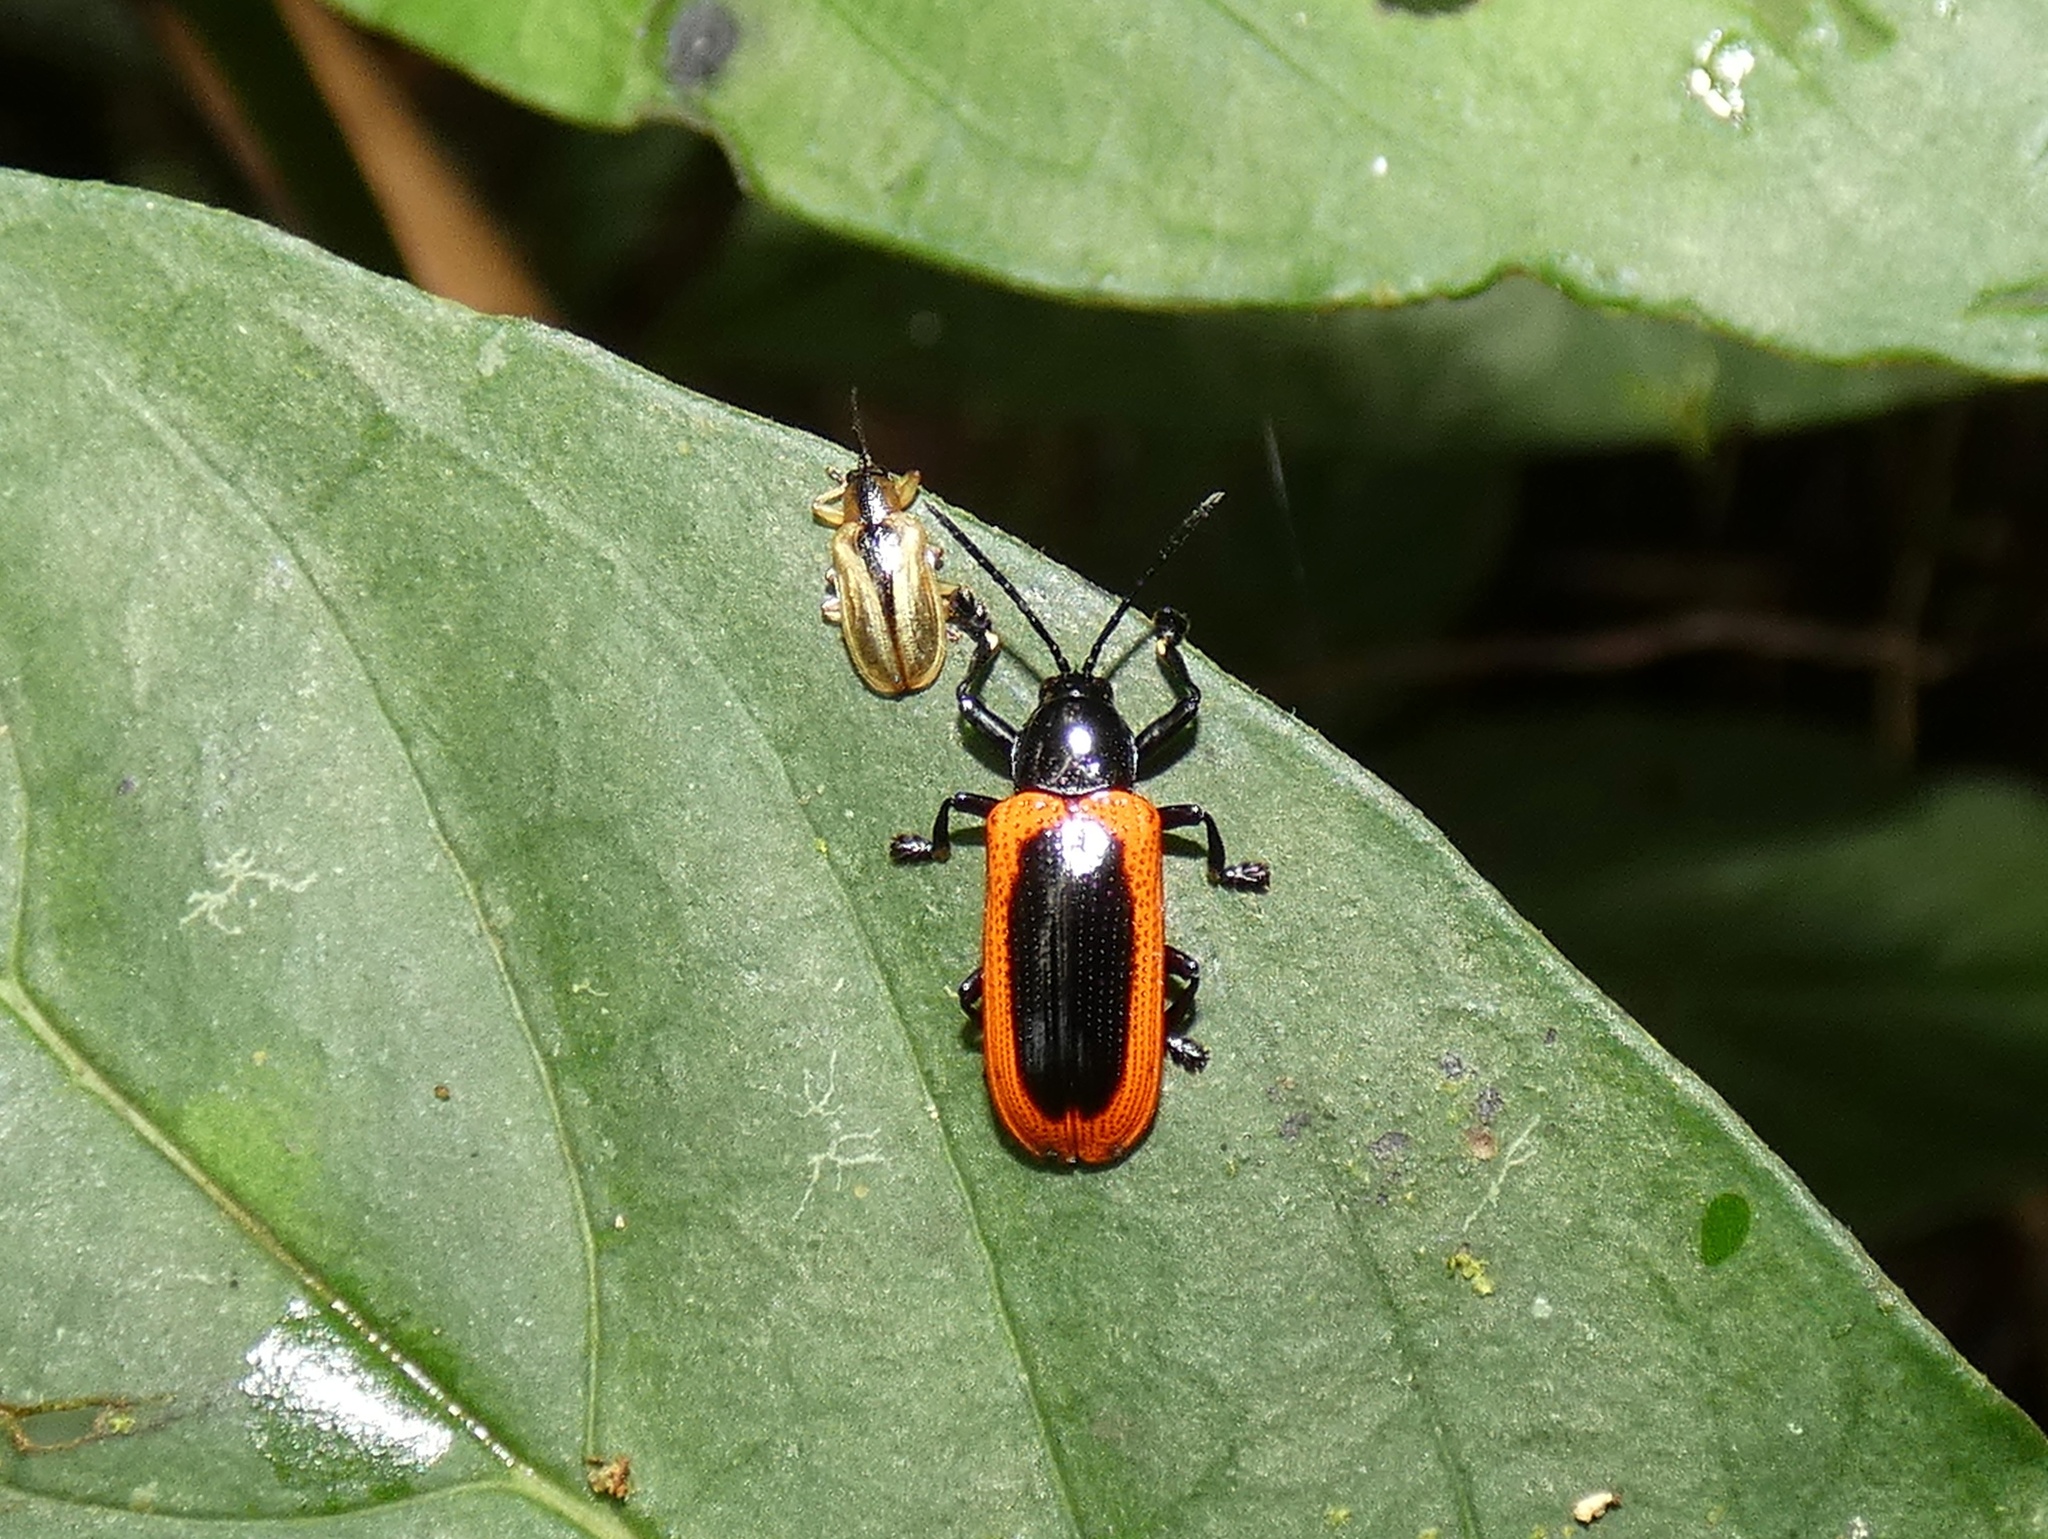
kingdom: Animalia
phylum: Arthropoda
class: Insecta
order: Coleoptera
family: Chrysomelidae
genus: Prosopodonta
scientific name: Prosopodonta limbata
